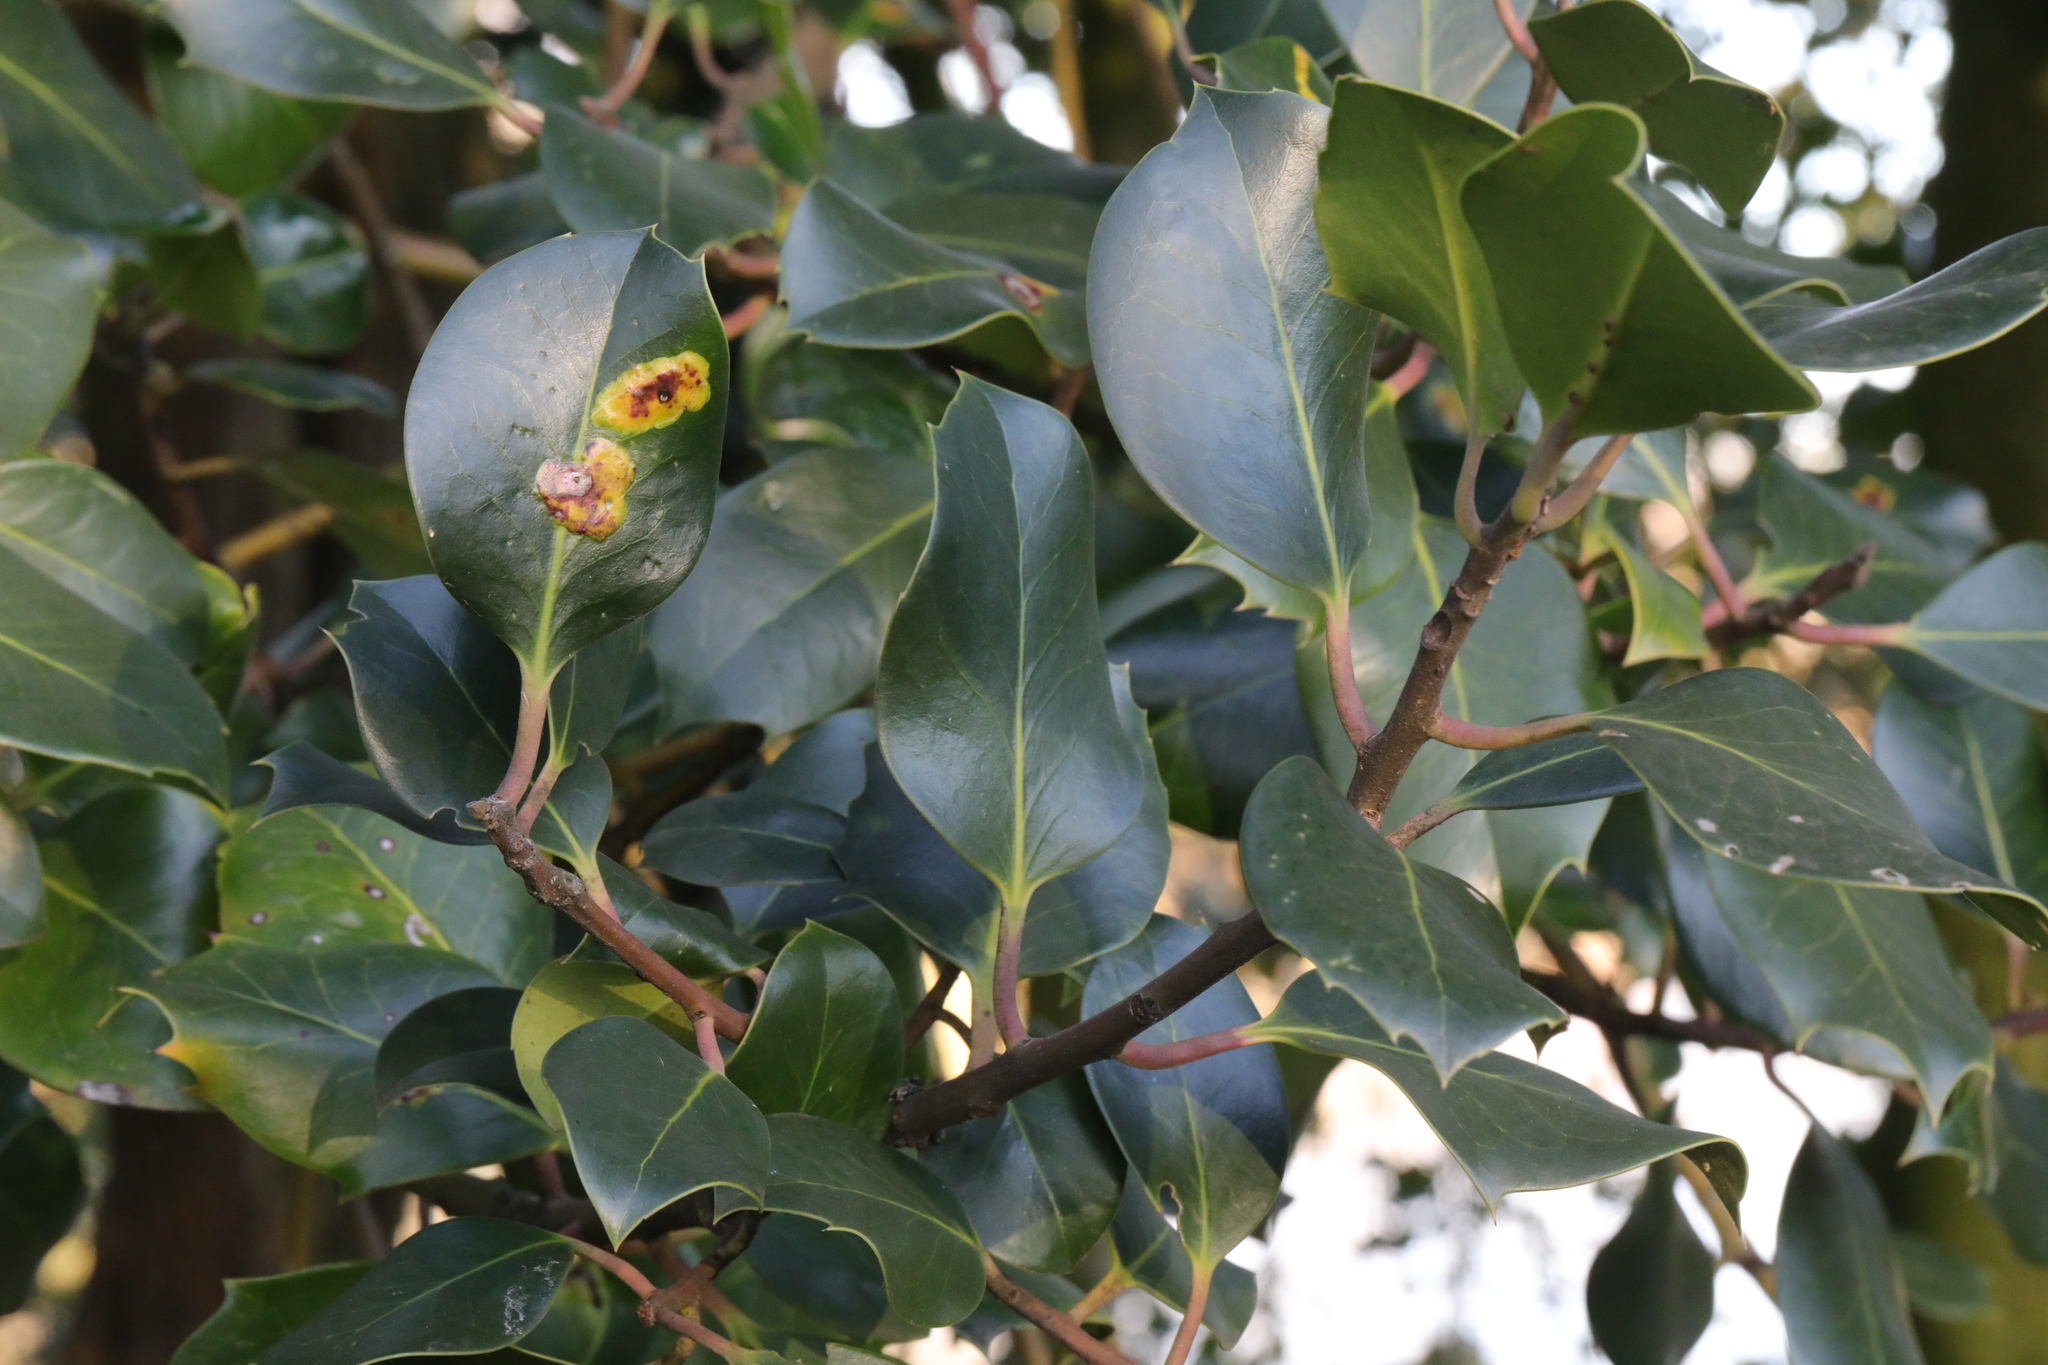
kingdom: Plantae
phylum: Tracheophyta
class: Magnoliopsida
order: Aquifoliales
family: Aquifoliaceae
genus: Ilex
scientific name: Ilex aquifolium
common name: English holly
